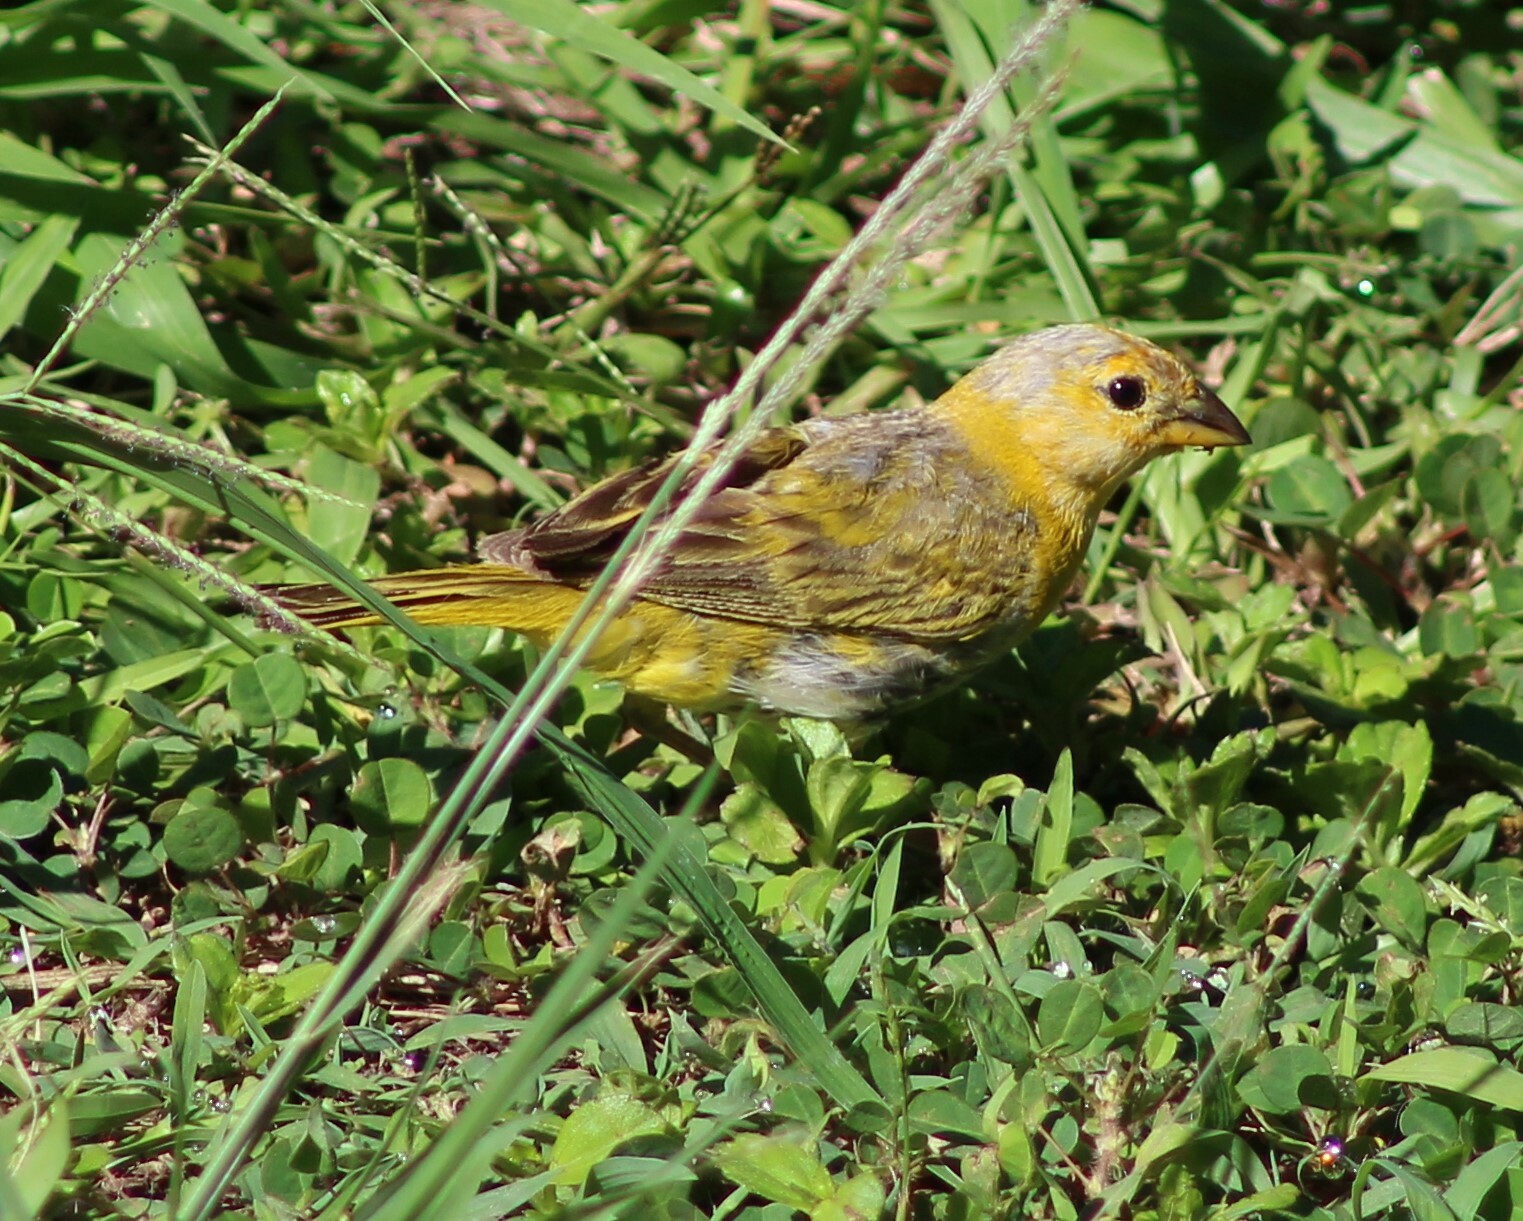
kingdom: Animalia
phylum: Chordata
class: Aves
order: Passeriformes
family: Thraupidae
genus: Sicalis
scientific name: Sicalis flaveola
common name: Saffron finch
